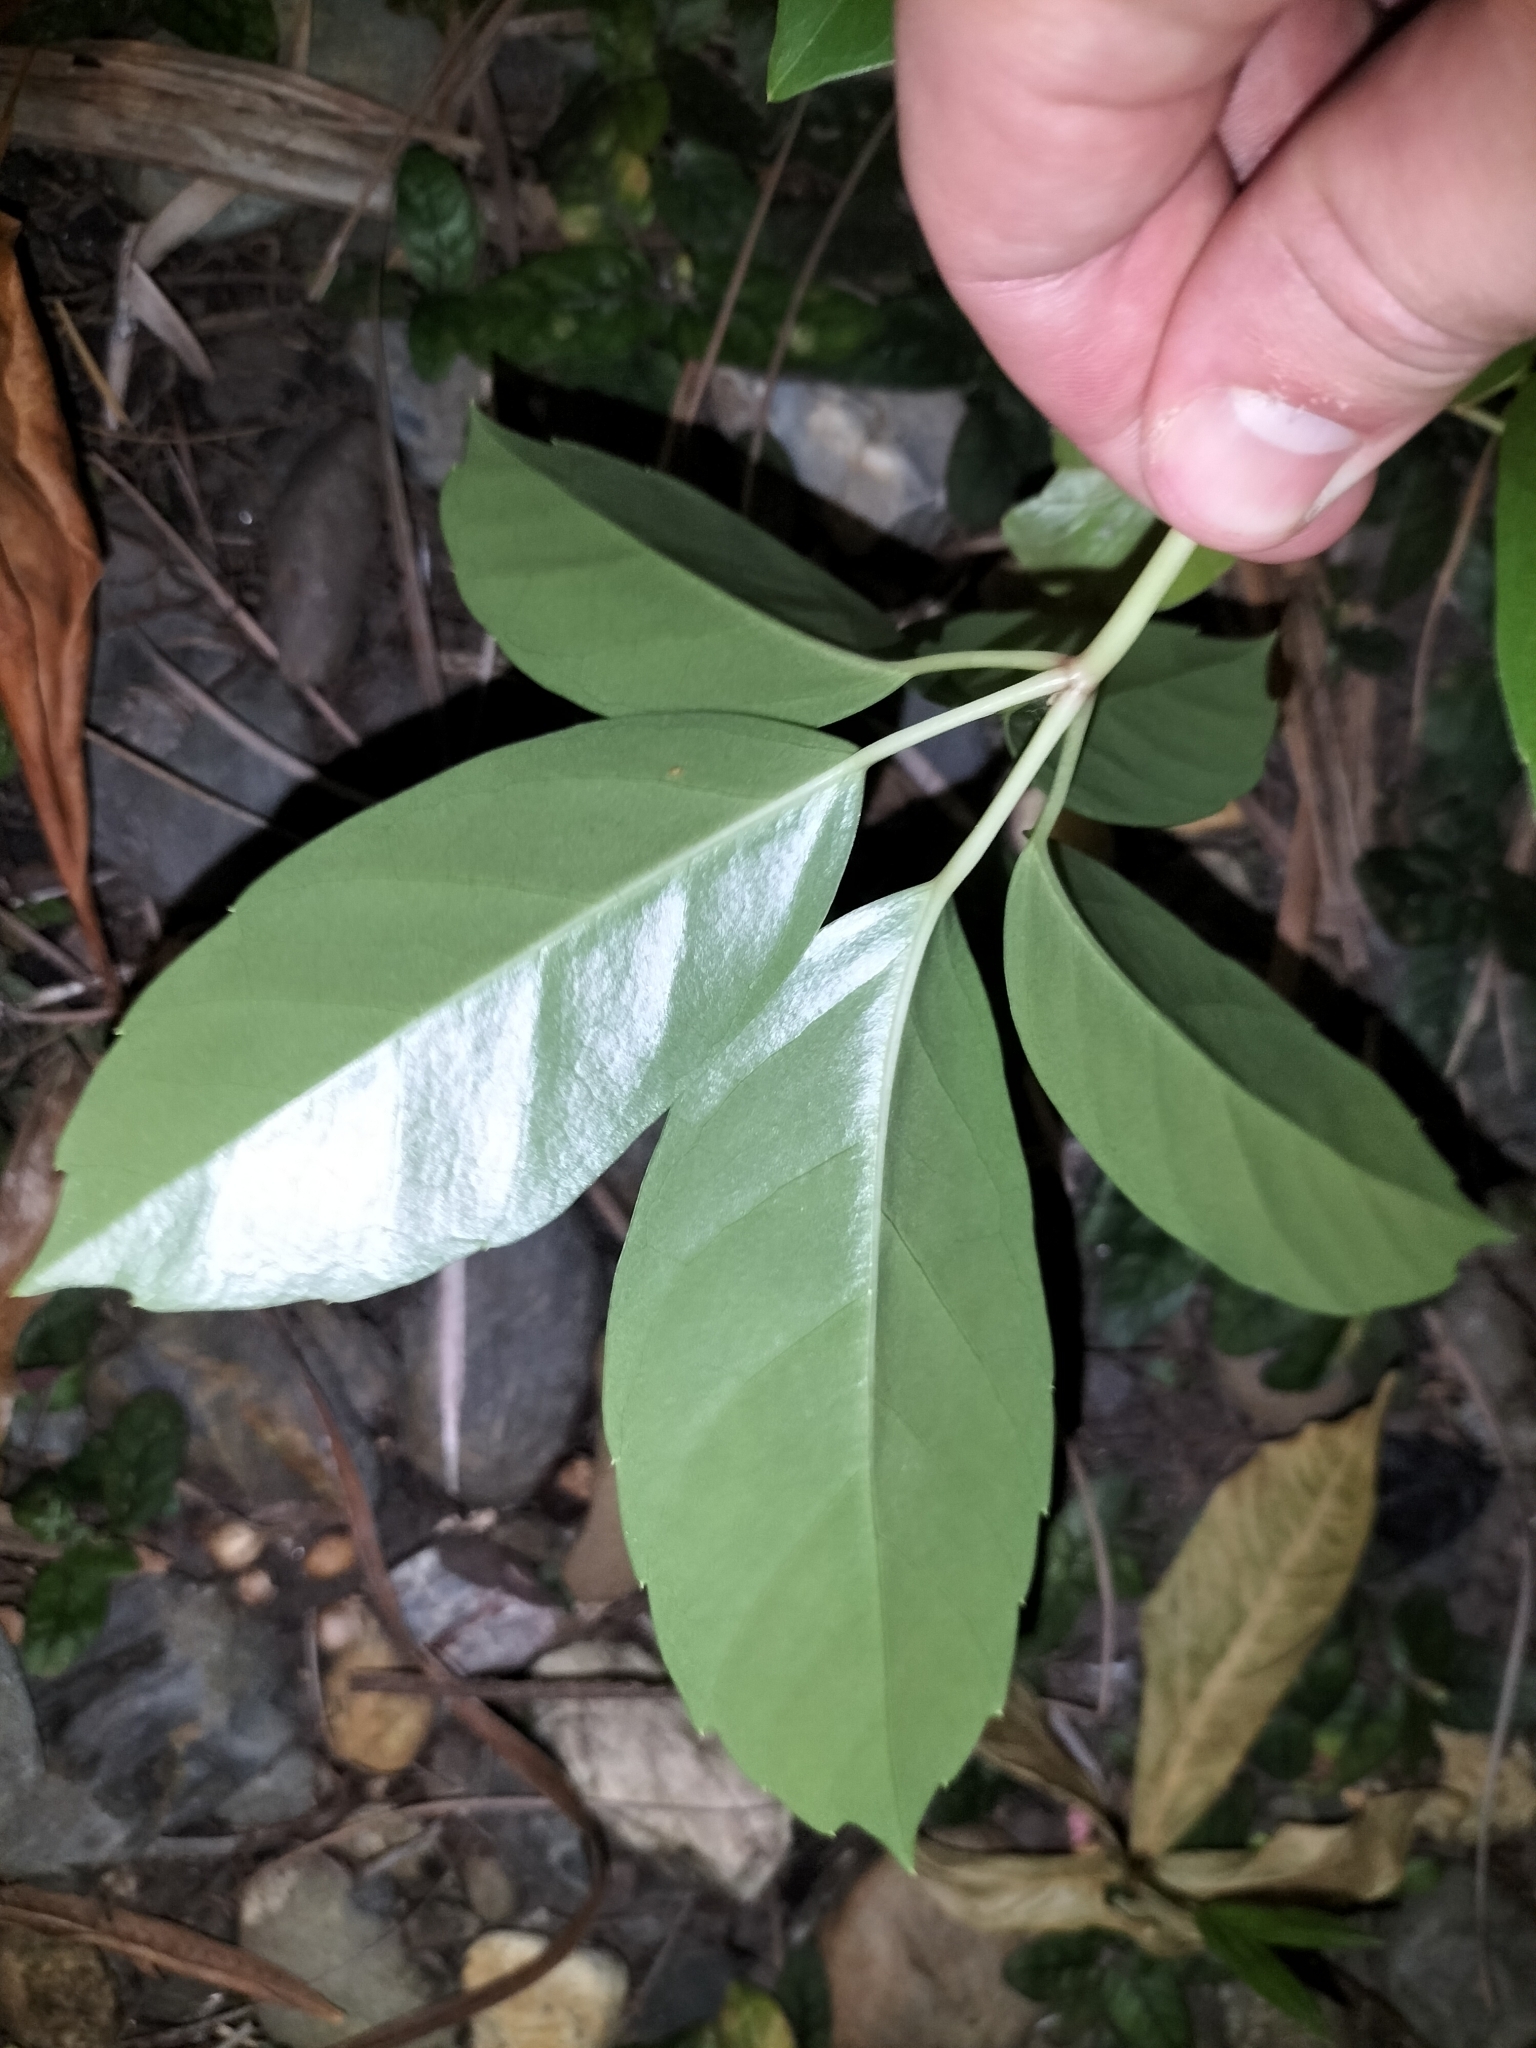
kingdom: Plantae
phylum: Tracheophyta
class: Magnoliopsida
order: Apiales
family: Araliaceae
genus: Heptapleurum
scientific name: Heptapleurum actinophyllum
